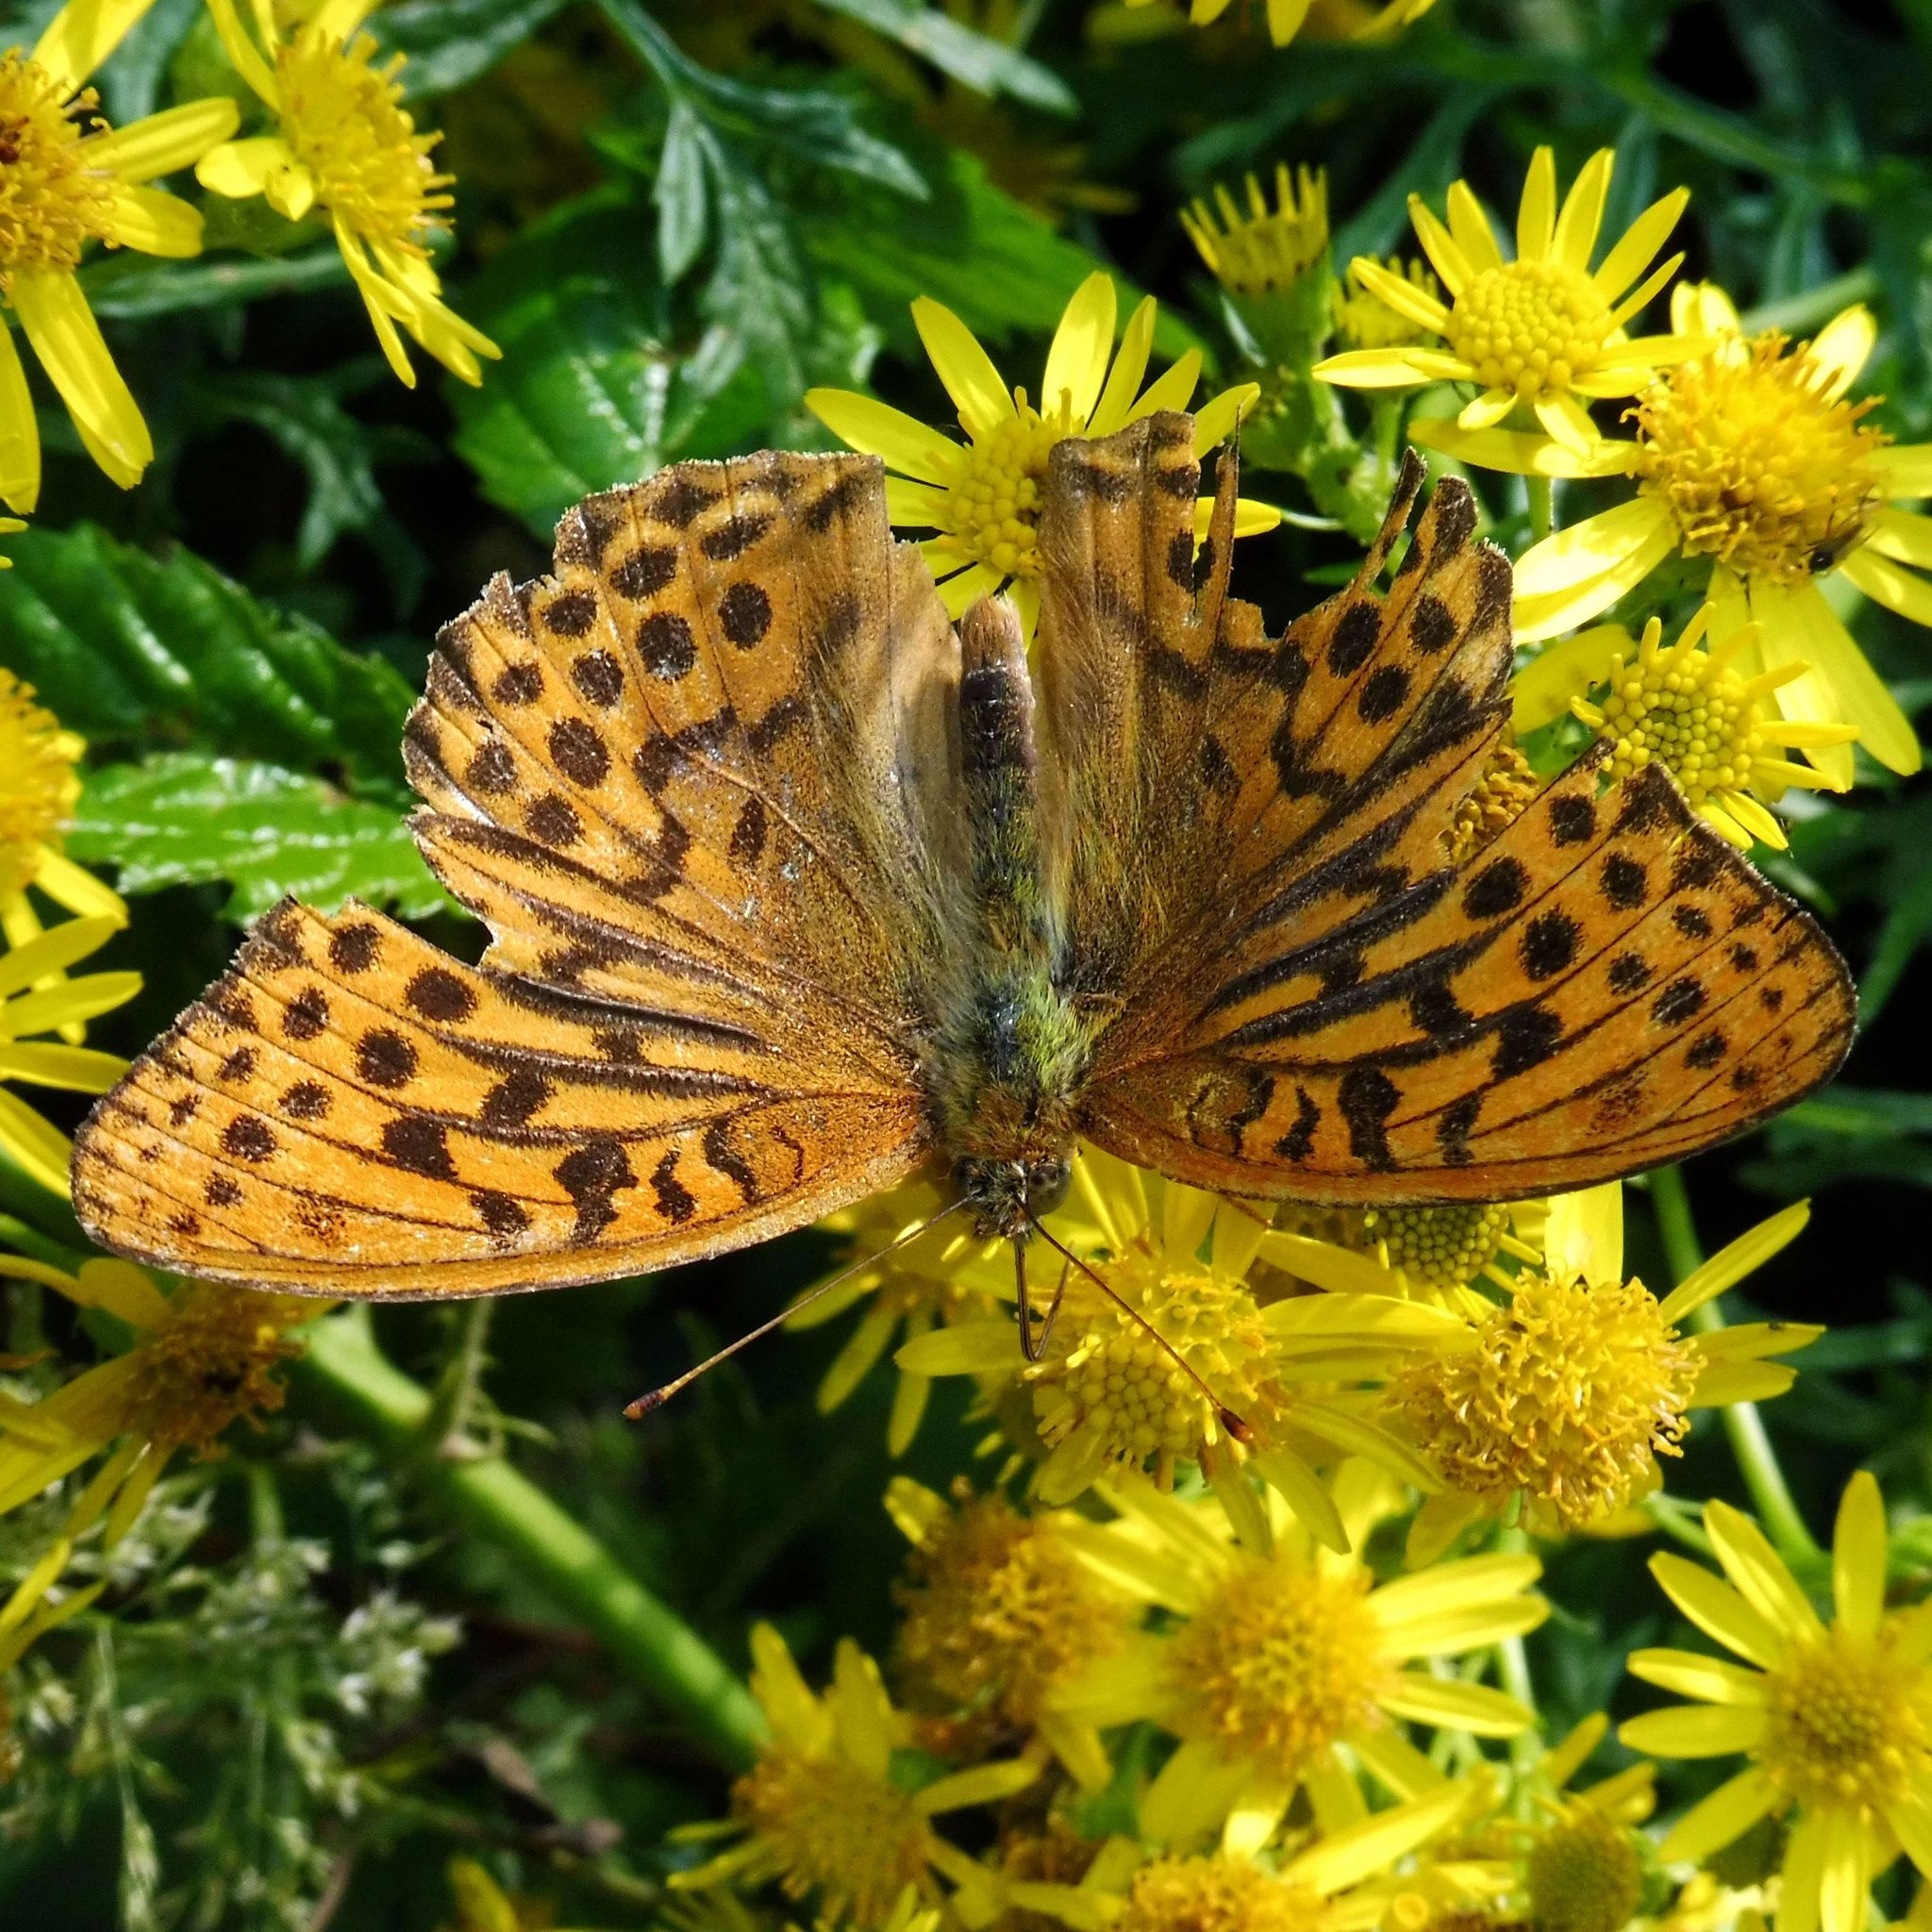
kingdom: Animalia
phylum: Arthropoda
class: Insecta
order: Lepidoptera
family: Nymphalidae
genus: Argynnis
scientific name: Argynnis paphia
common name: Silver-washed fritillary
